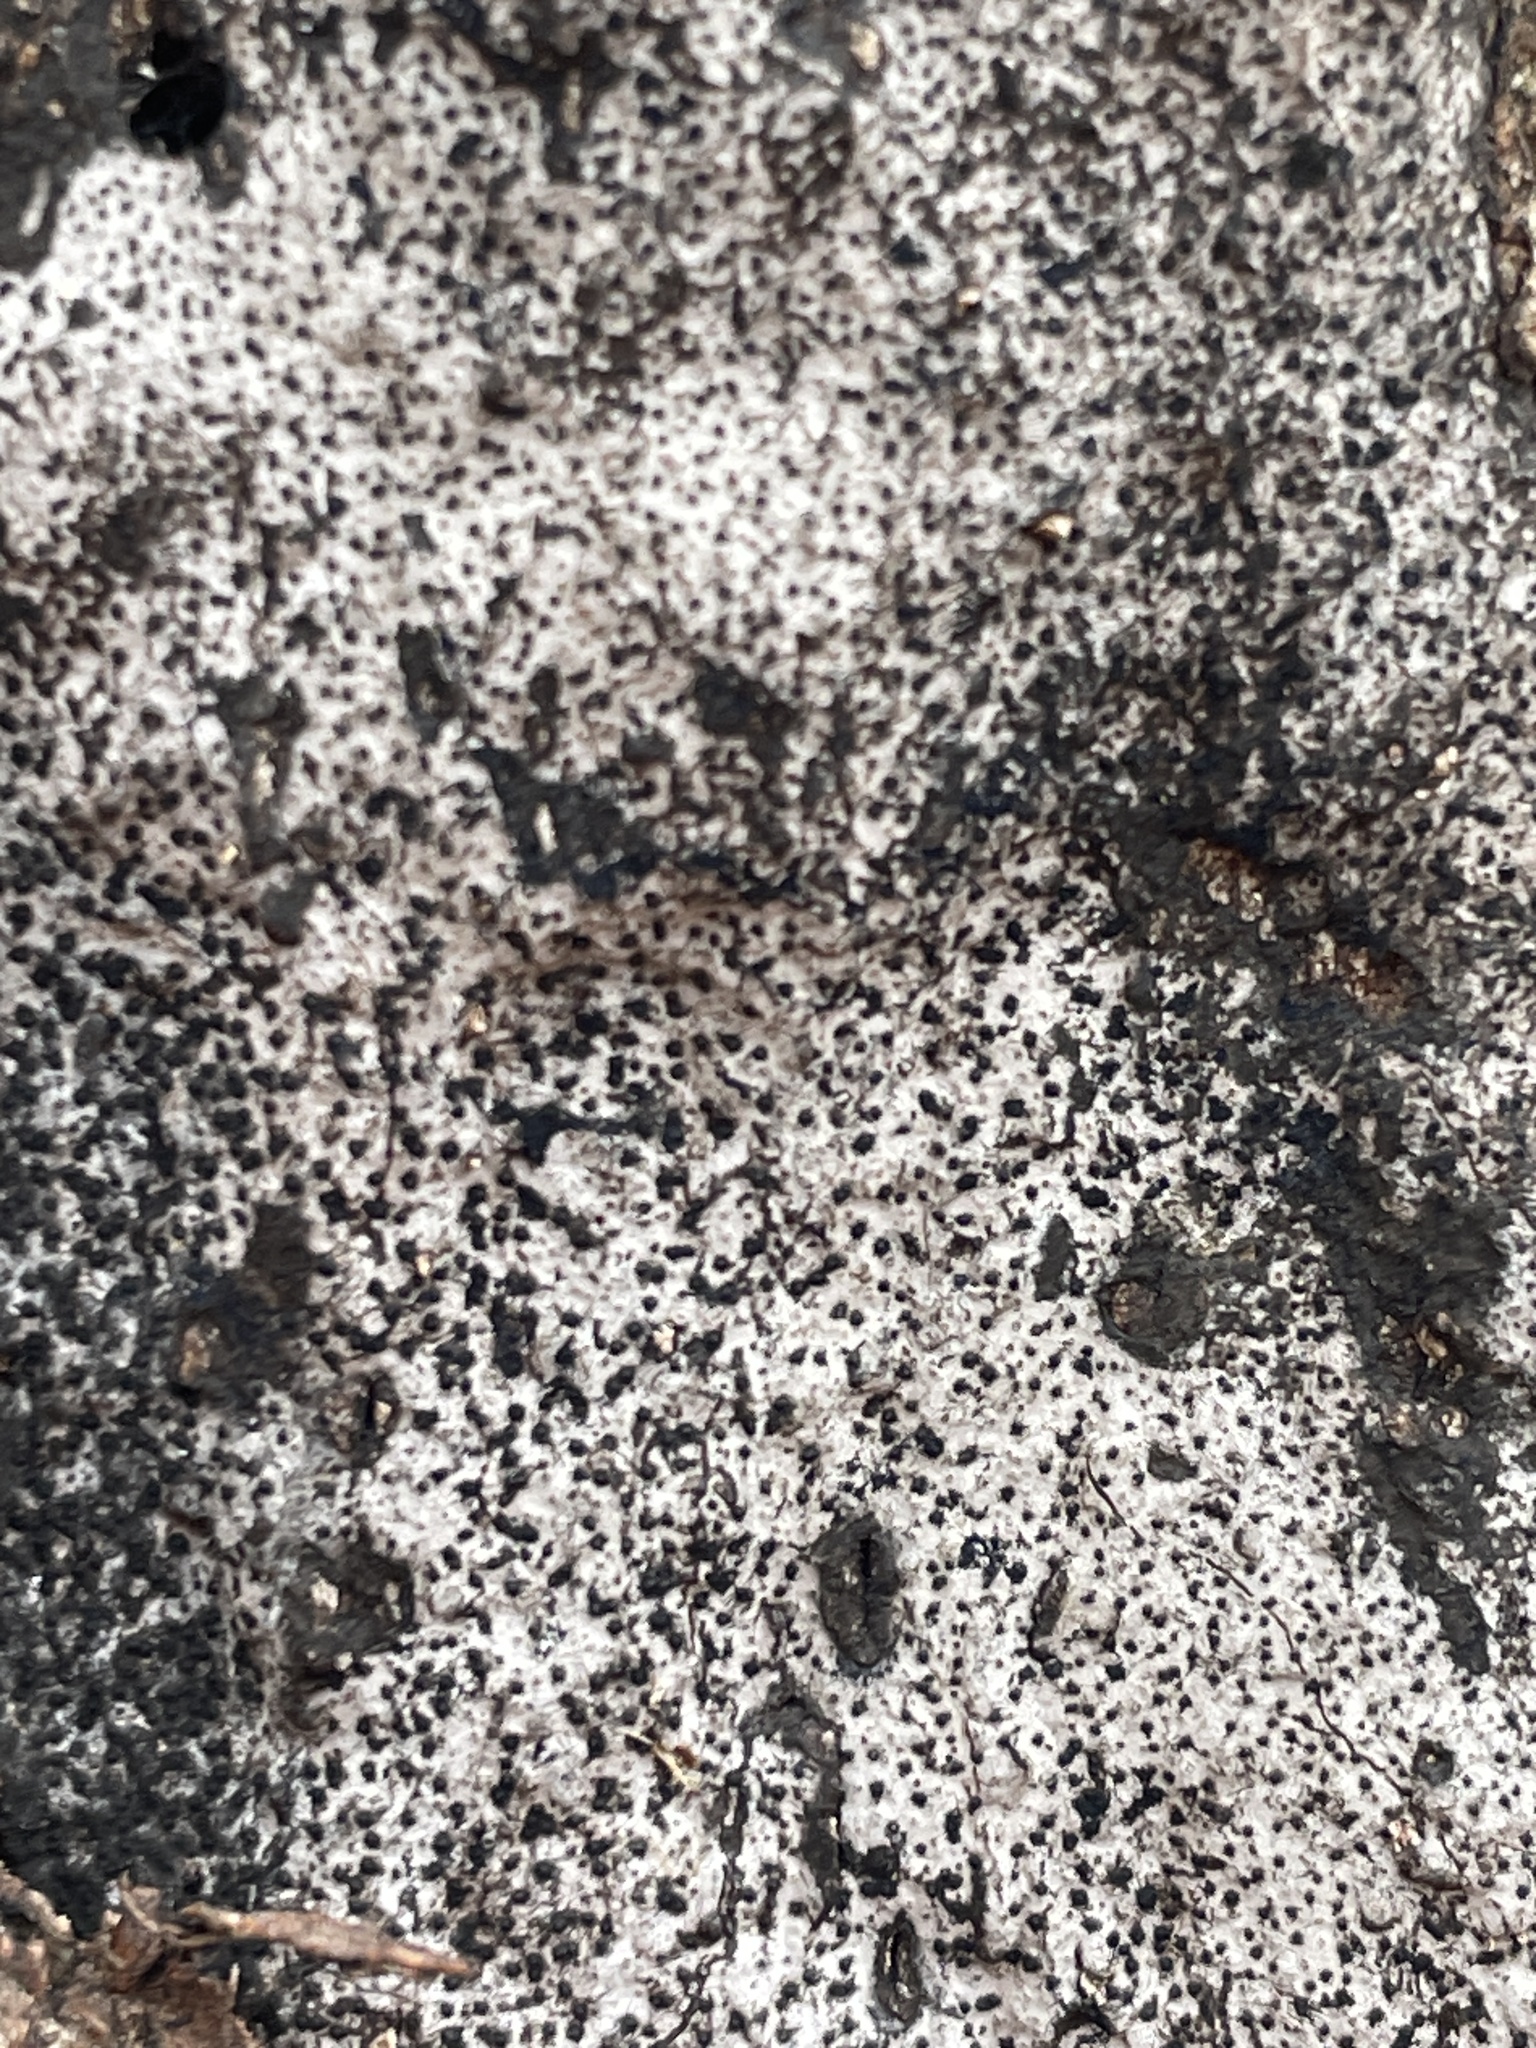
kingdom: Fungi
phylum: Ascomycota
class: Sordariomycetes
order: Xylariales
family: Graphostromataceae
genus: Biscogniauxia
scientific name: Biscogniauxia atropunctata
